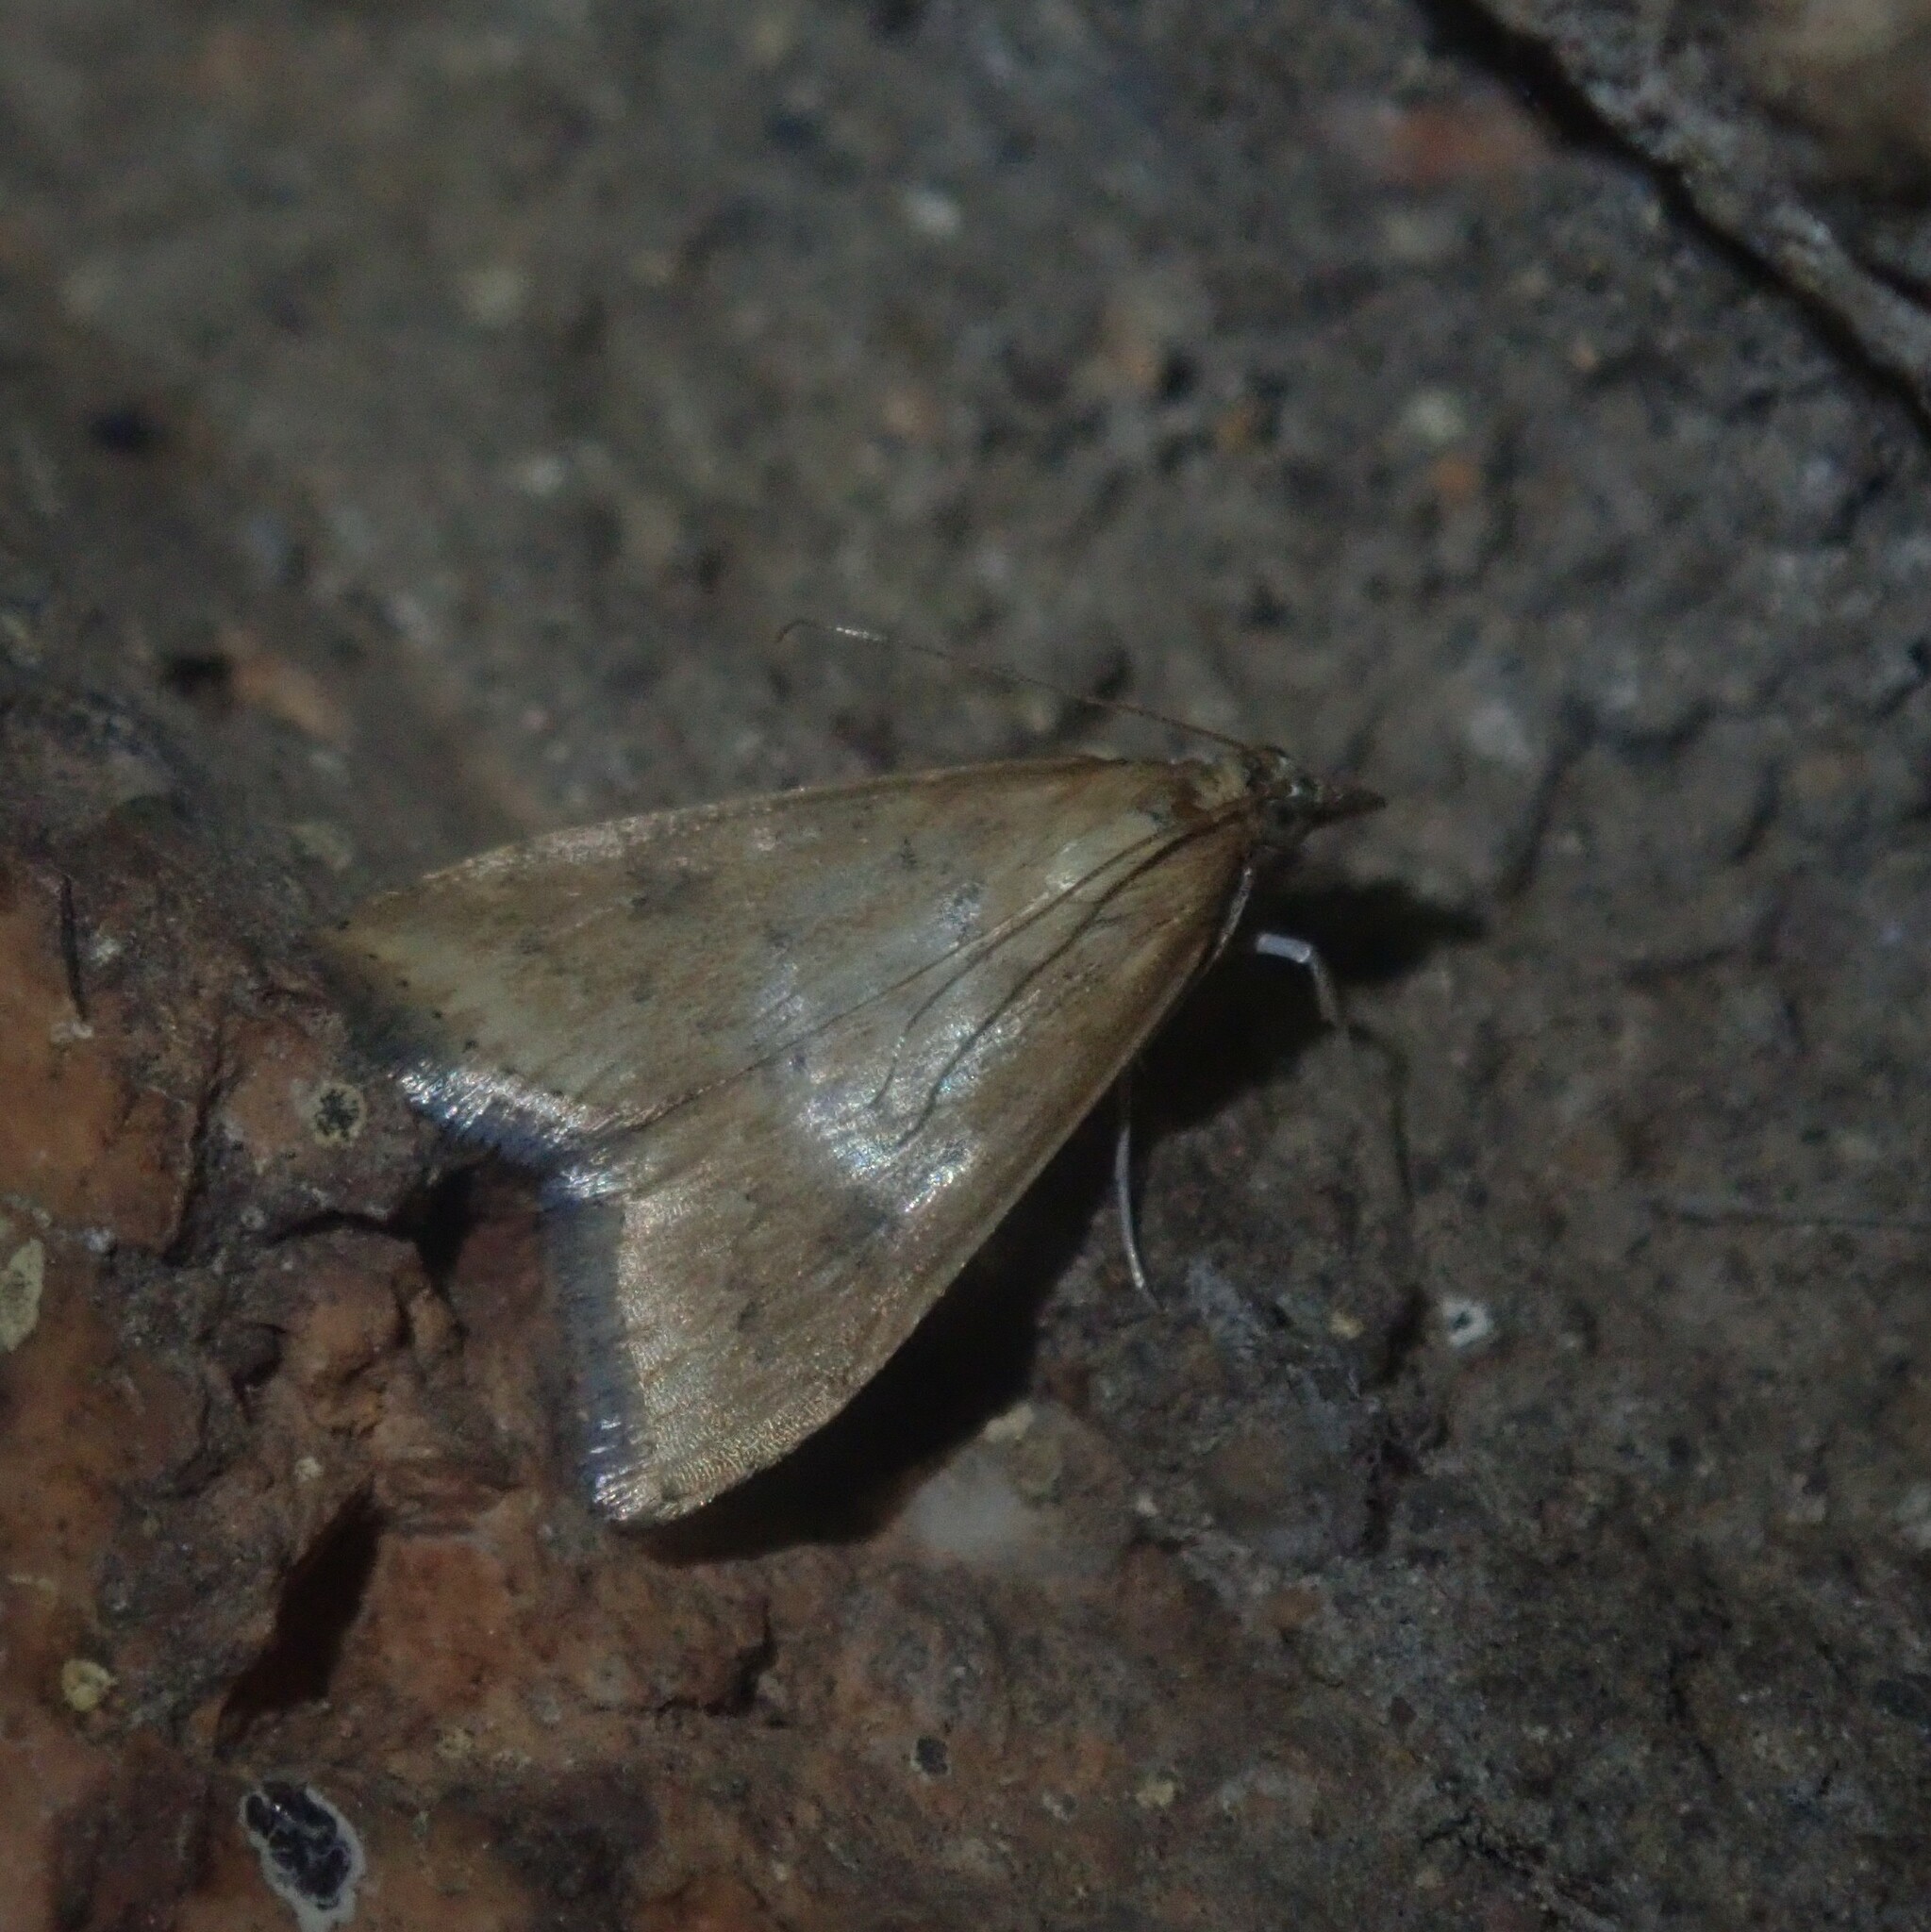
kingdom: Animalia
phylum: Arthropoda
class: Insecta
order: Lepidoptera
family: Crambidae
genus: Udea
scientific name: Udea ferrugalis
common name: Rusty dot
